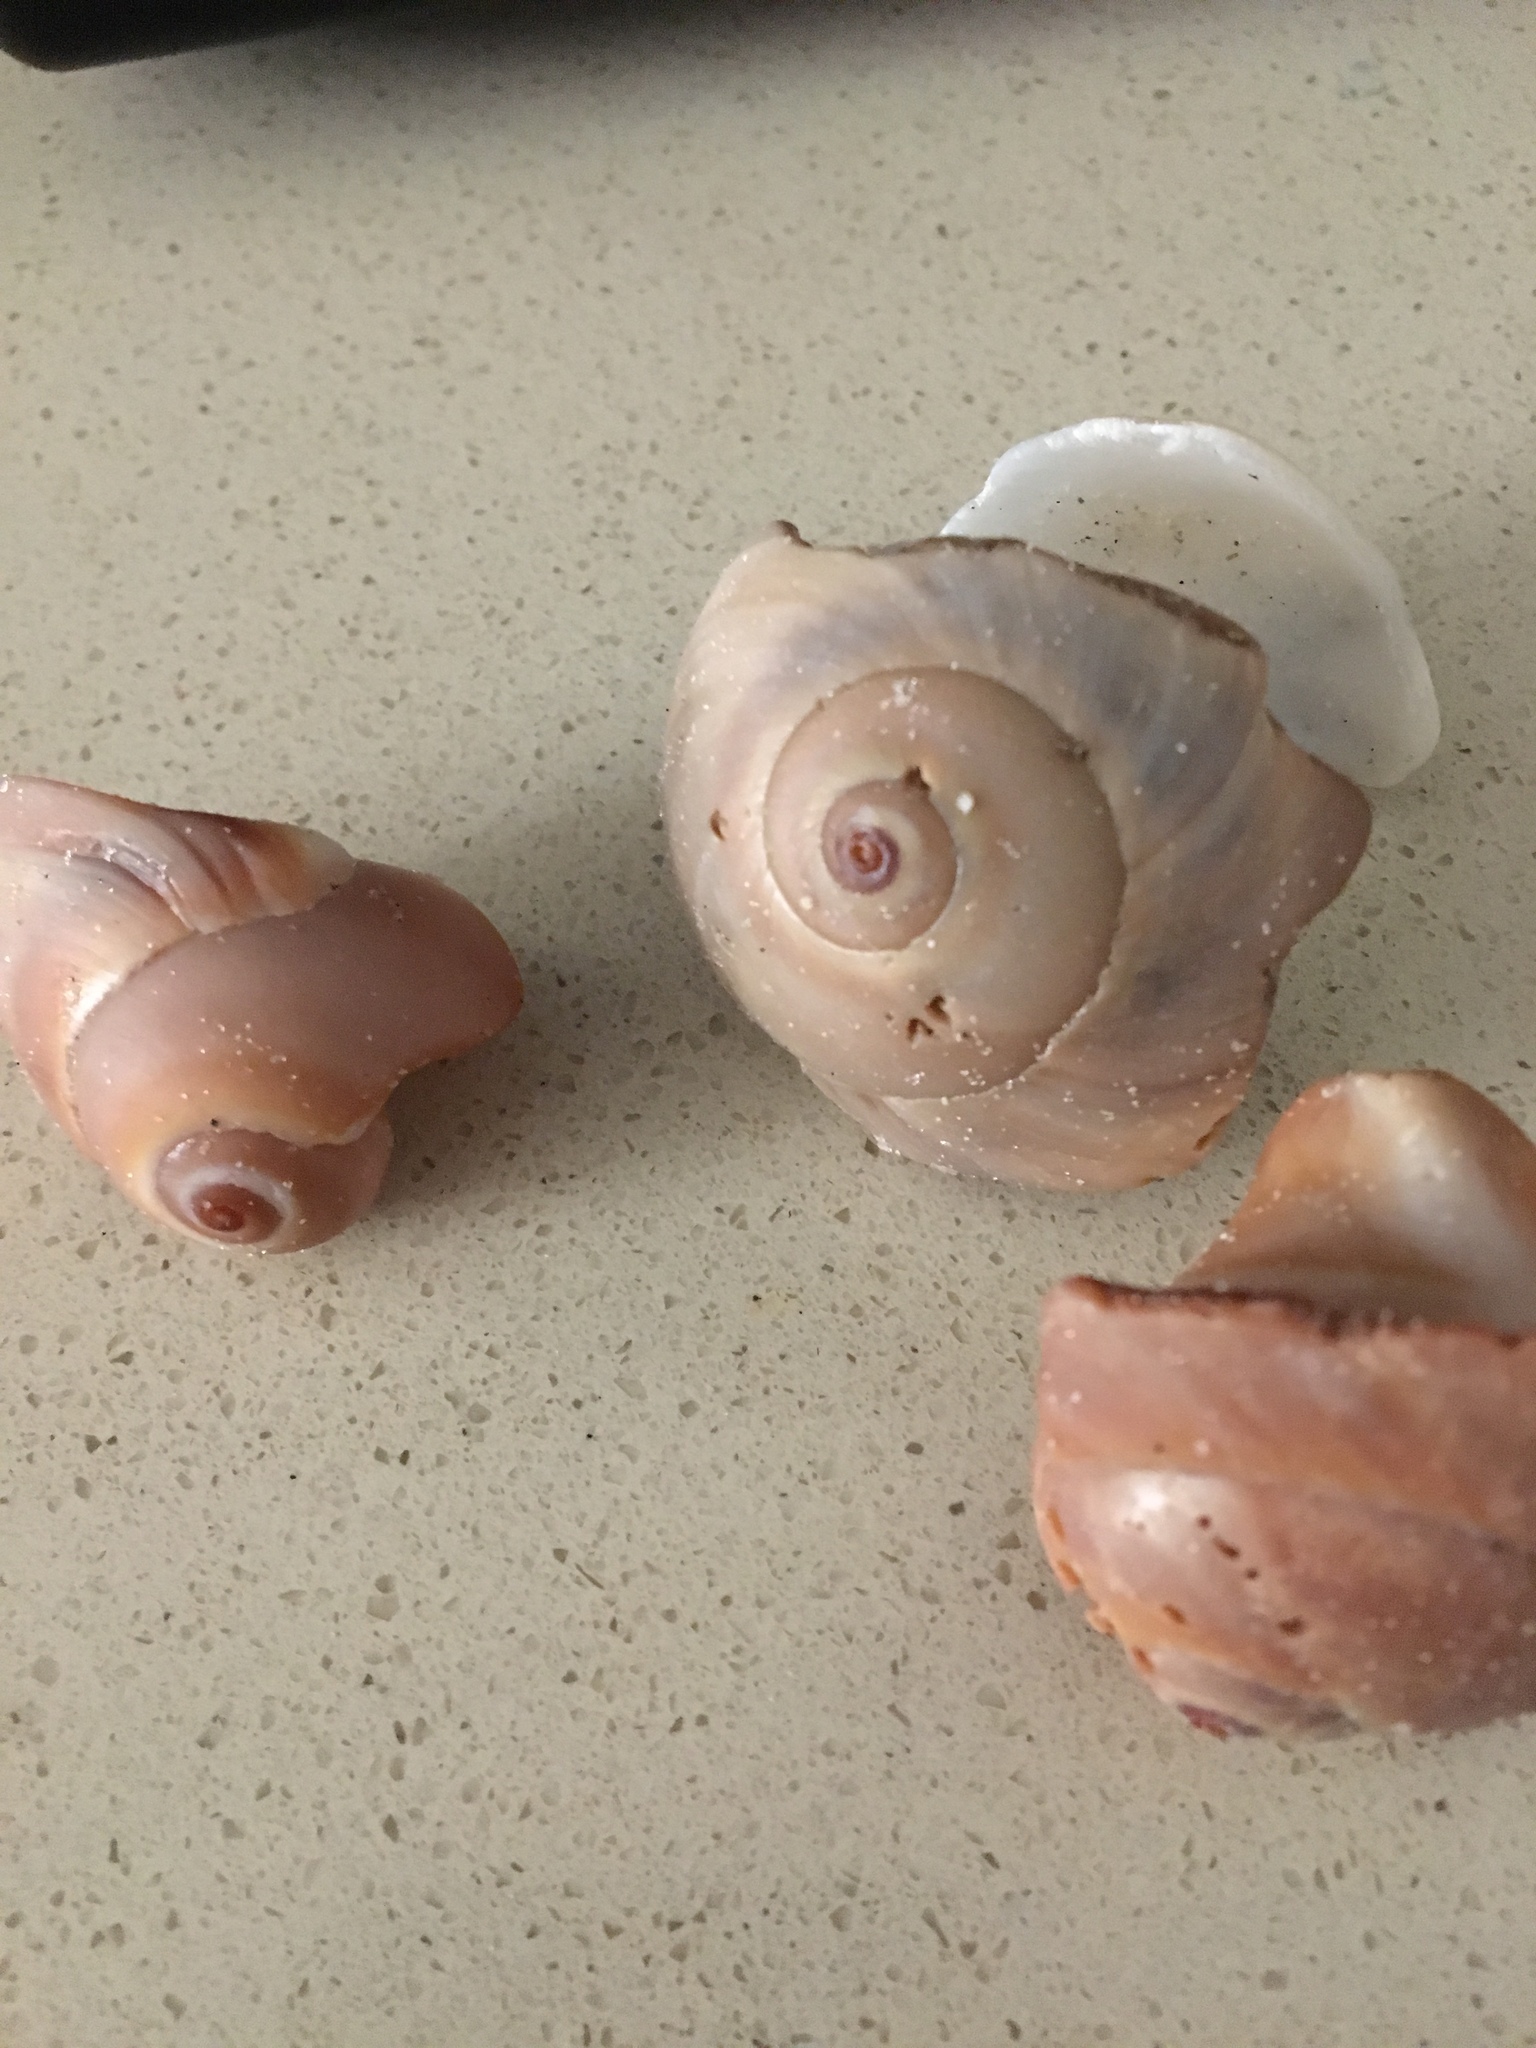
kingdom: Animalia
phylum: Mollusca
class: Gastropoda
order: Littorinimorpha
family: Naticidae
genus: Neverita
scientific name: Neverita
